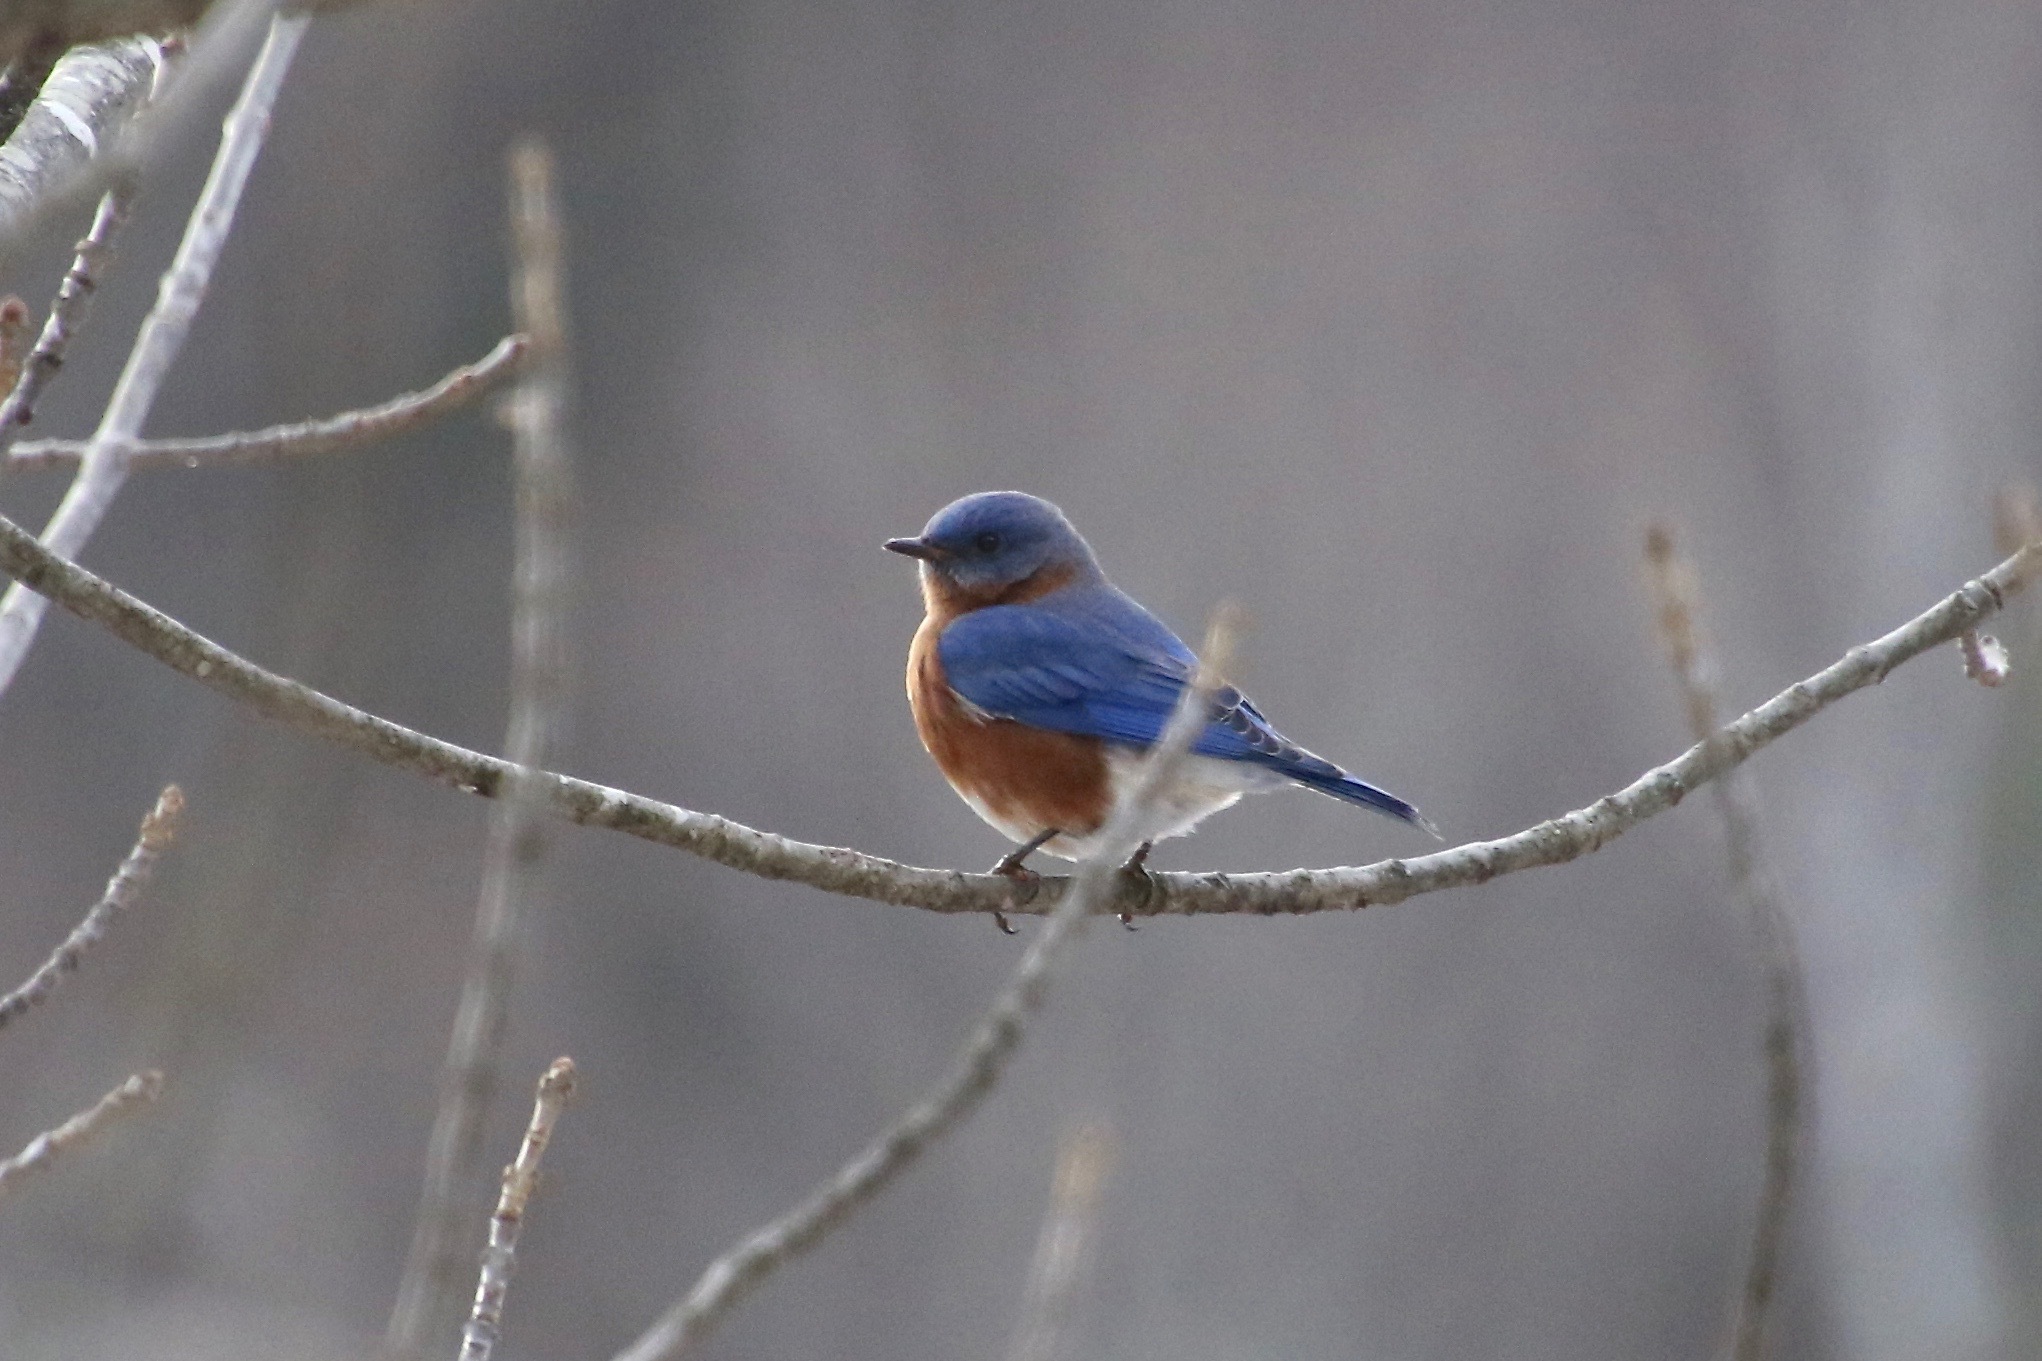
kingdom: Animalia
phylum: Chordata
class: Aves
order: Passeriformes
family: Turdidae
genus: Sialia
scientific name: Sialia sialis
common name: Eastern bluebird
